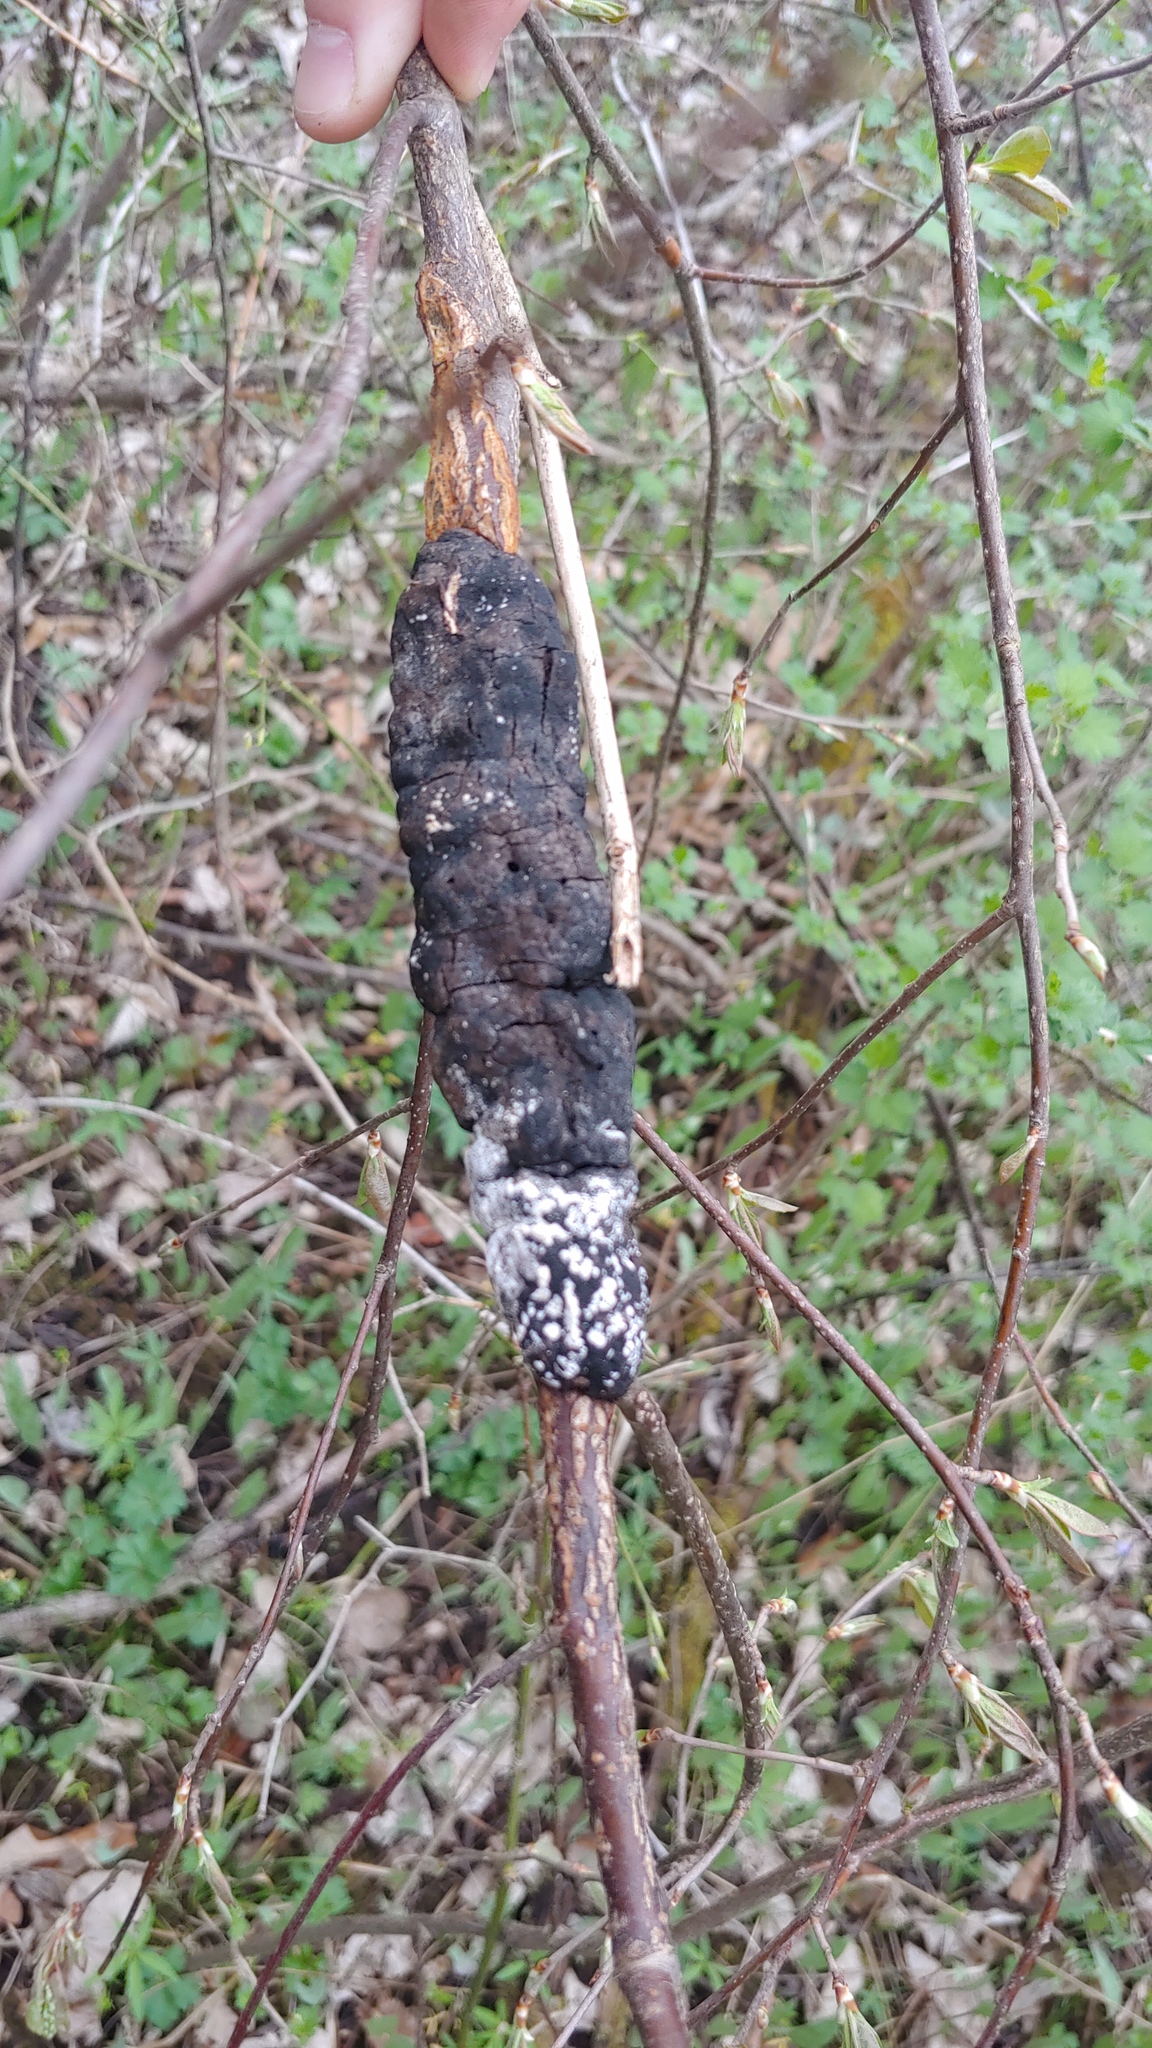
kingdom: Fungi
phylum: Ascomycota
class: Sordariomycetes
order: Hypocreales
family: Myrotheciomycetaceae
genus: Trichothecium
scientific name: Trichothecium roseum
